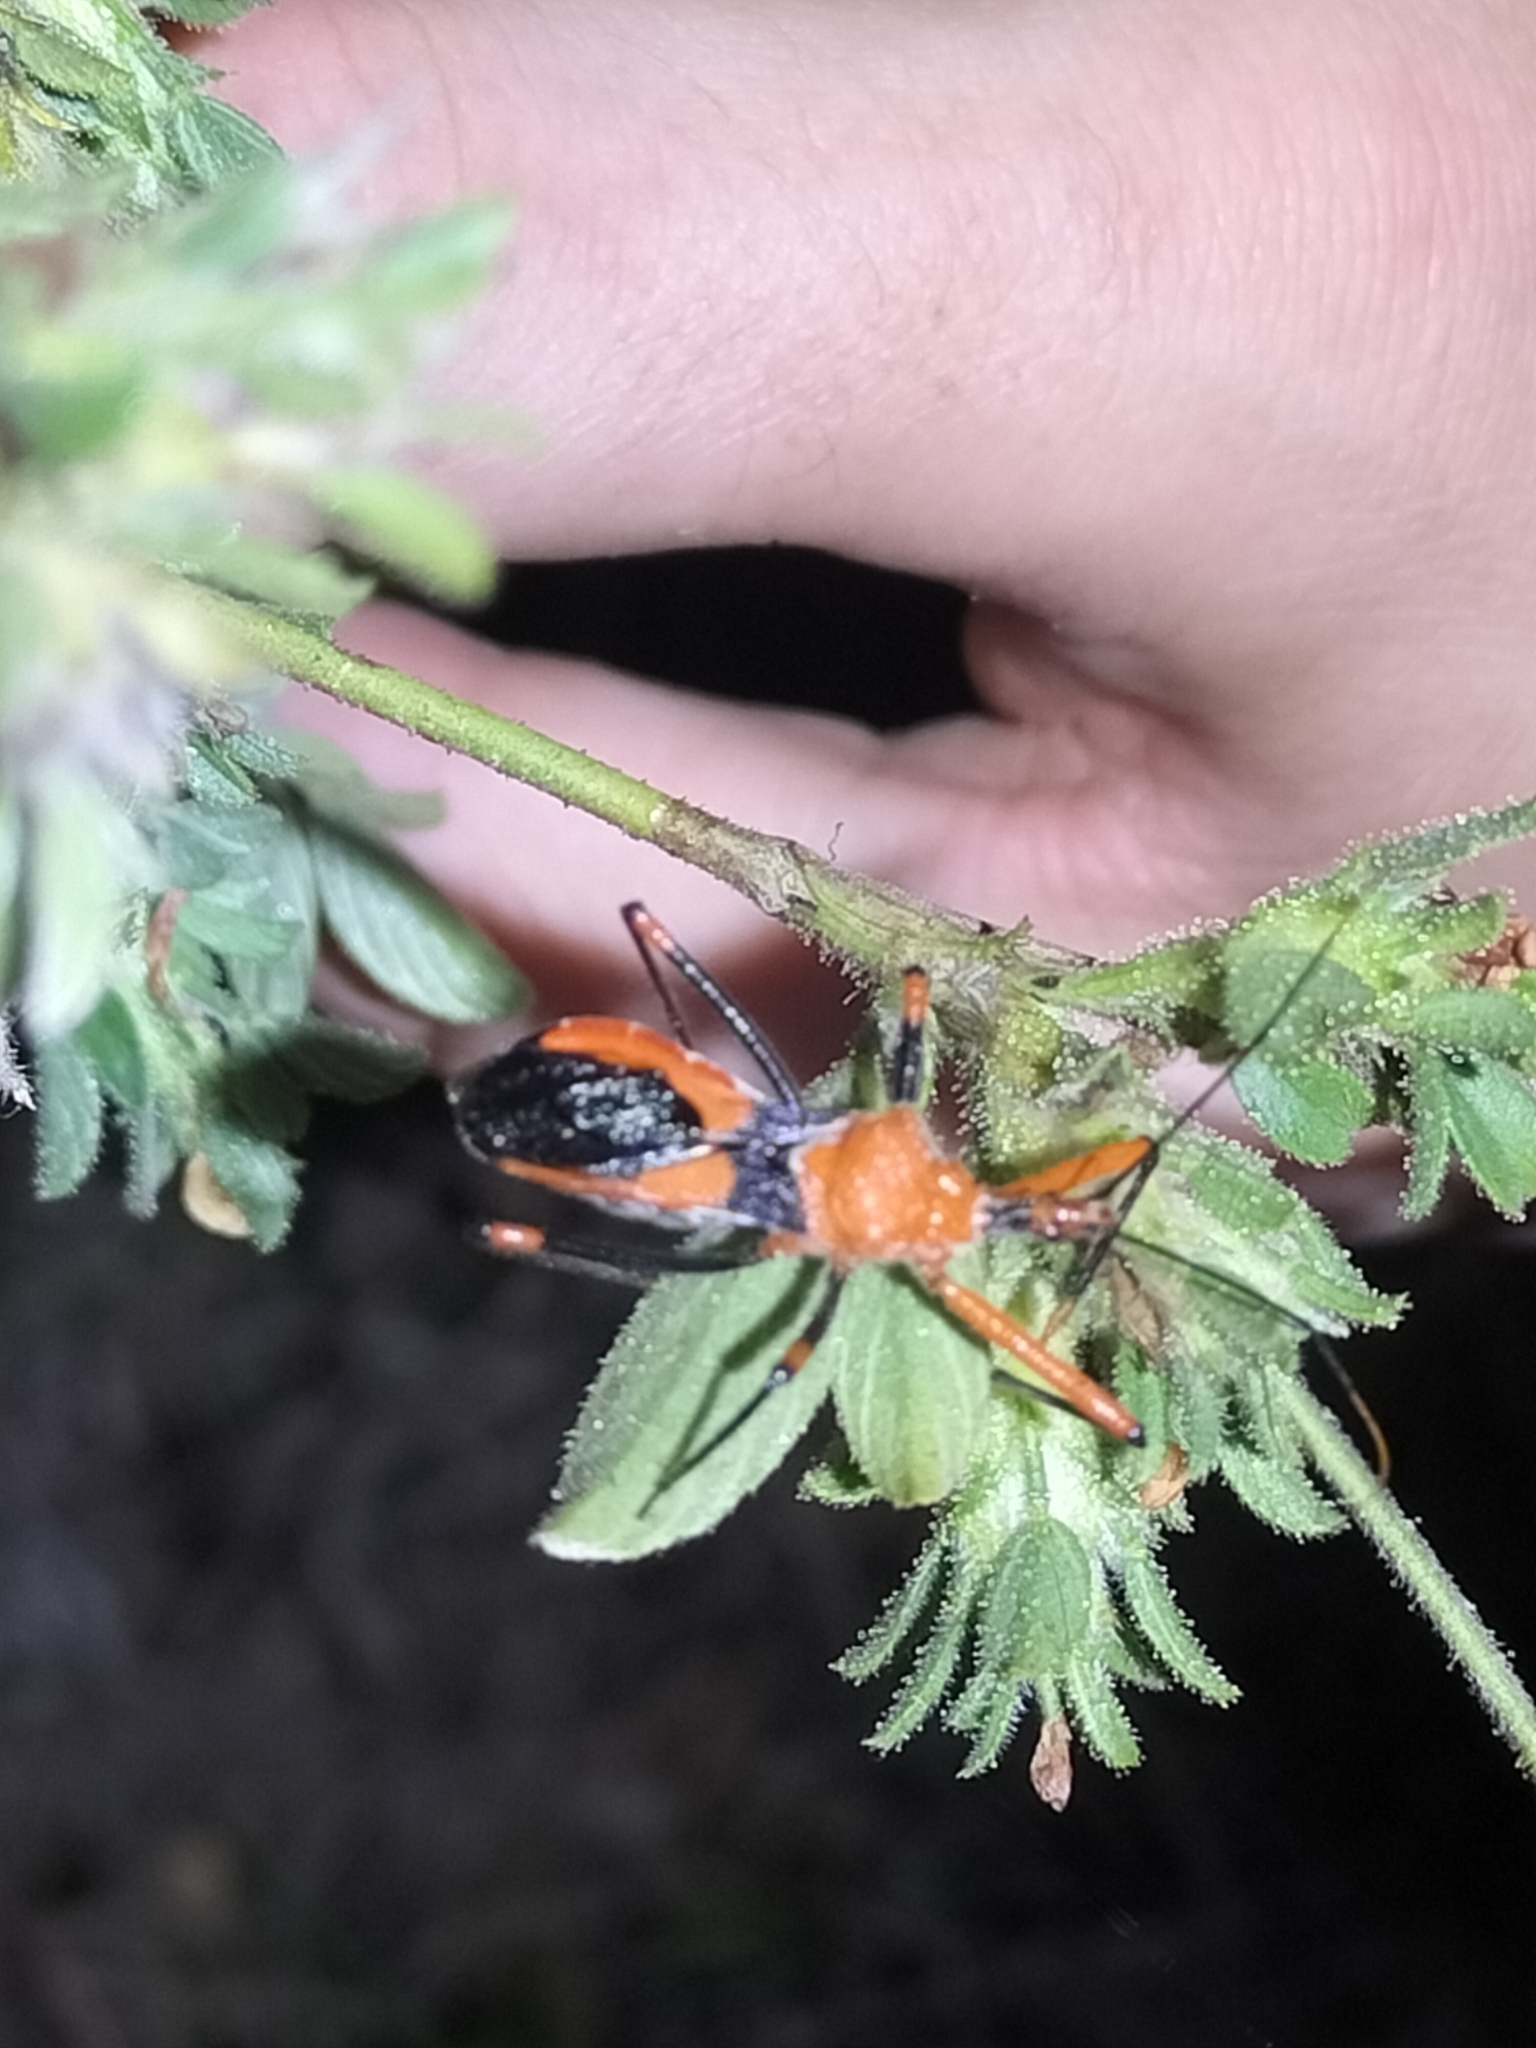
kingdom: Animalia
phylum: Arthropoda
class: Insecta
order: Hemiptera
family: Reduviidae
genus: Poecilobdallus
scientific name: Poecilobdallus formosus
